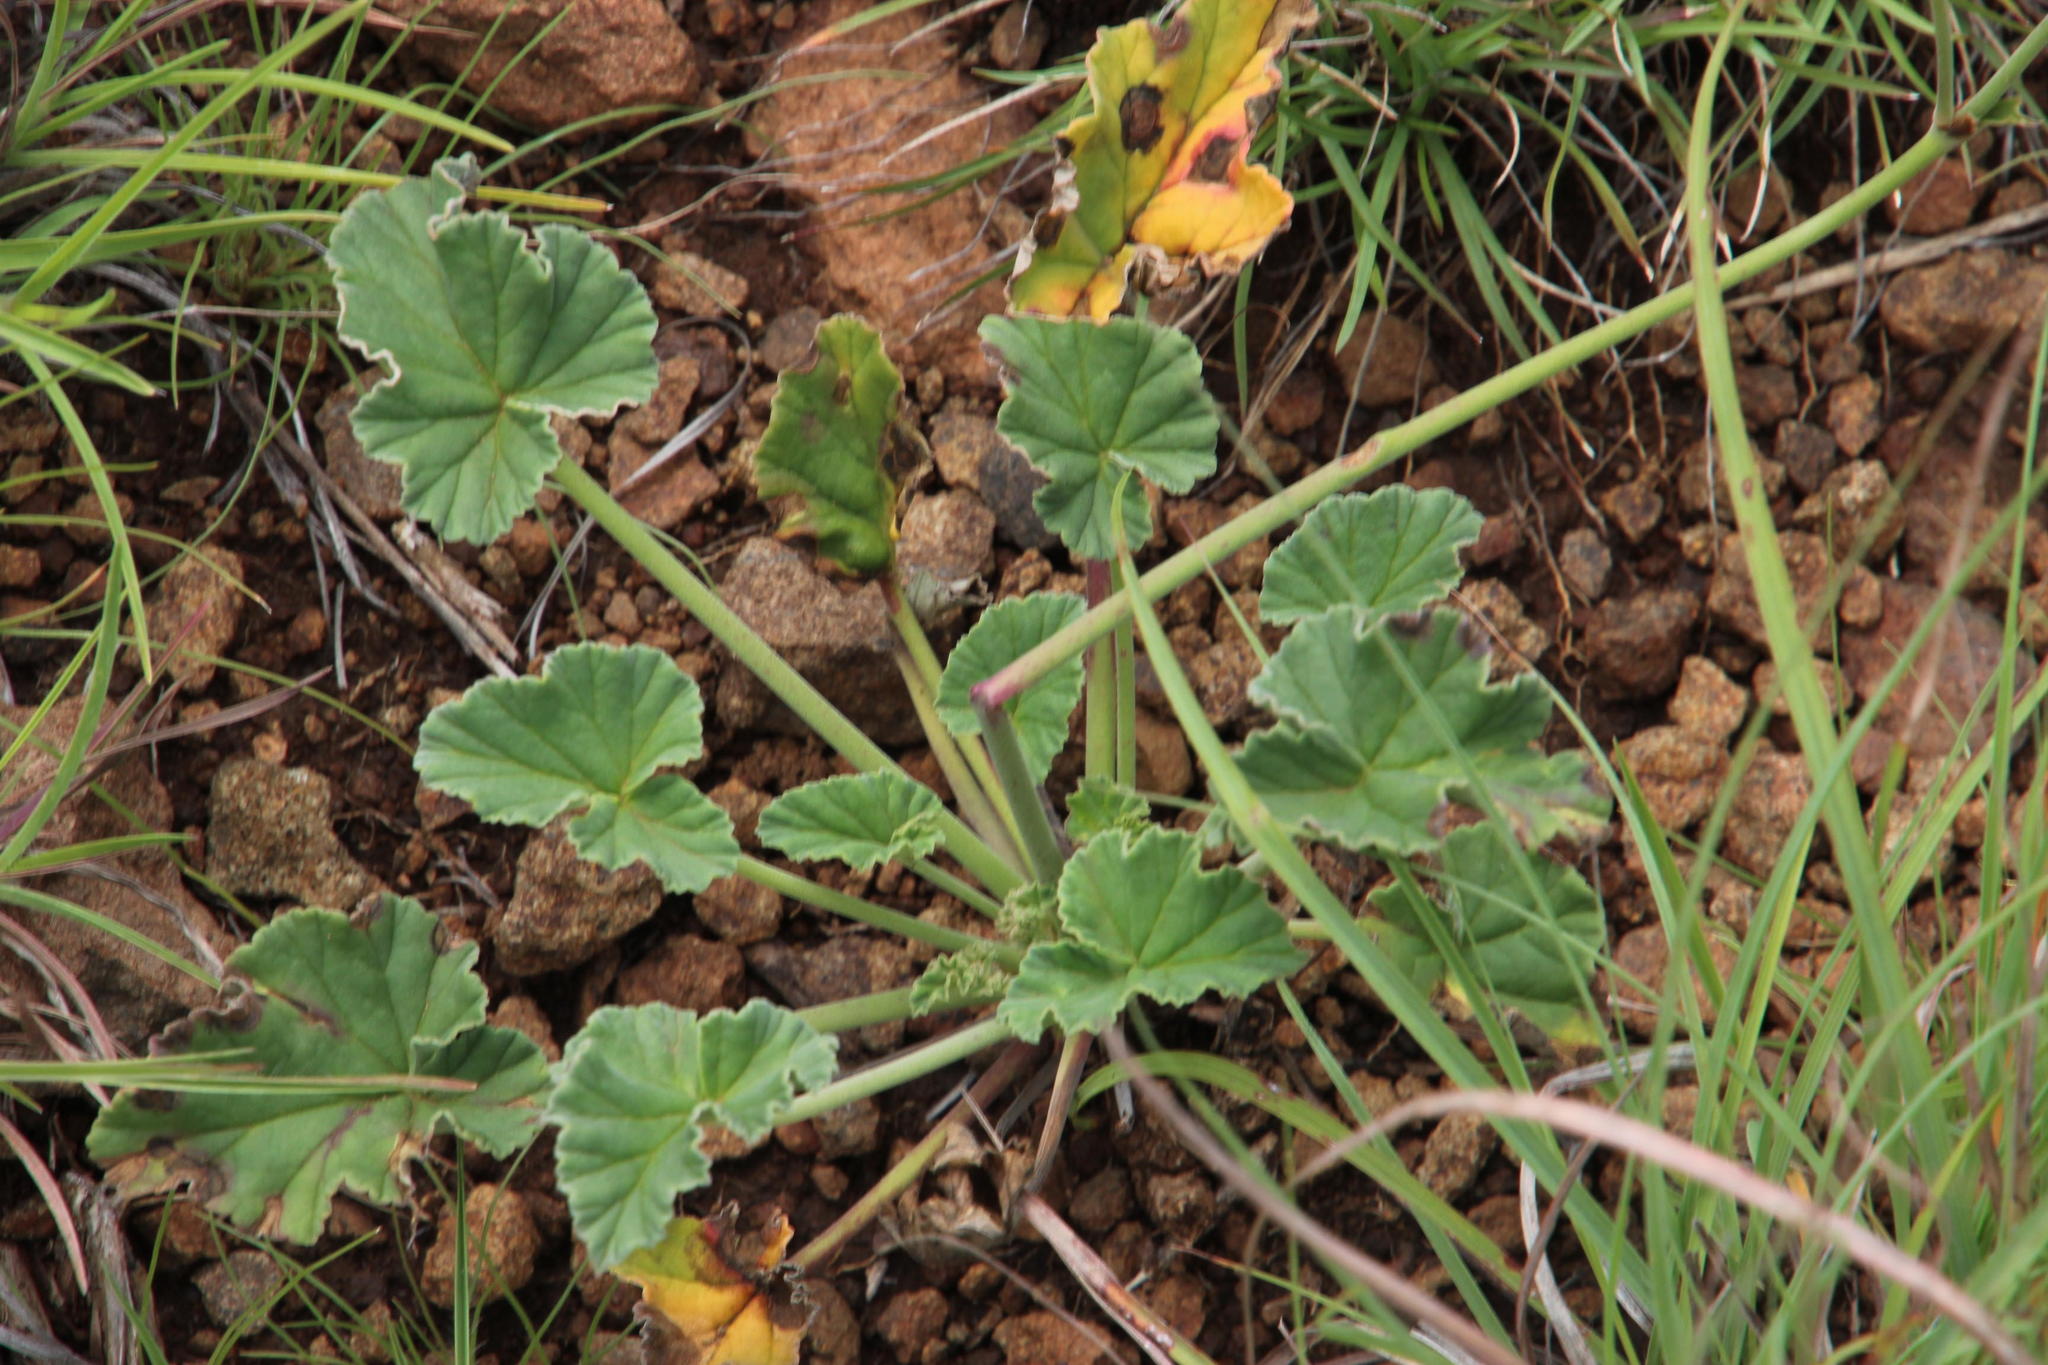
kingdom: Plantae
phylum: Tracheophyta
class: Magnoliopsida
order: Geraniales
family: Geraniaceae
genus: Pelargonium
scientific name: Pelargonium sidoides
